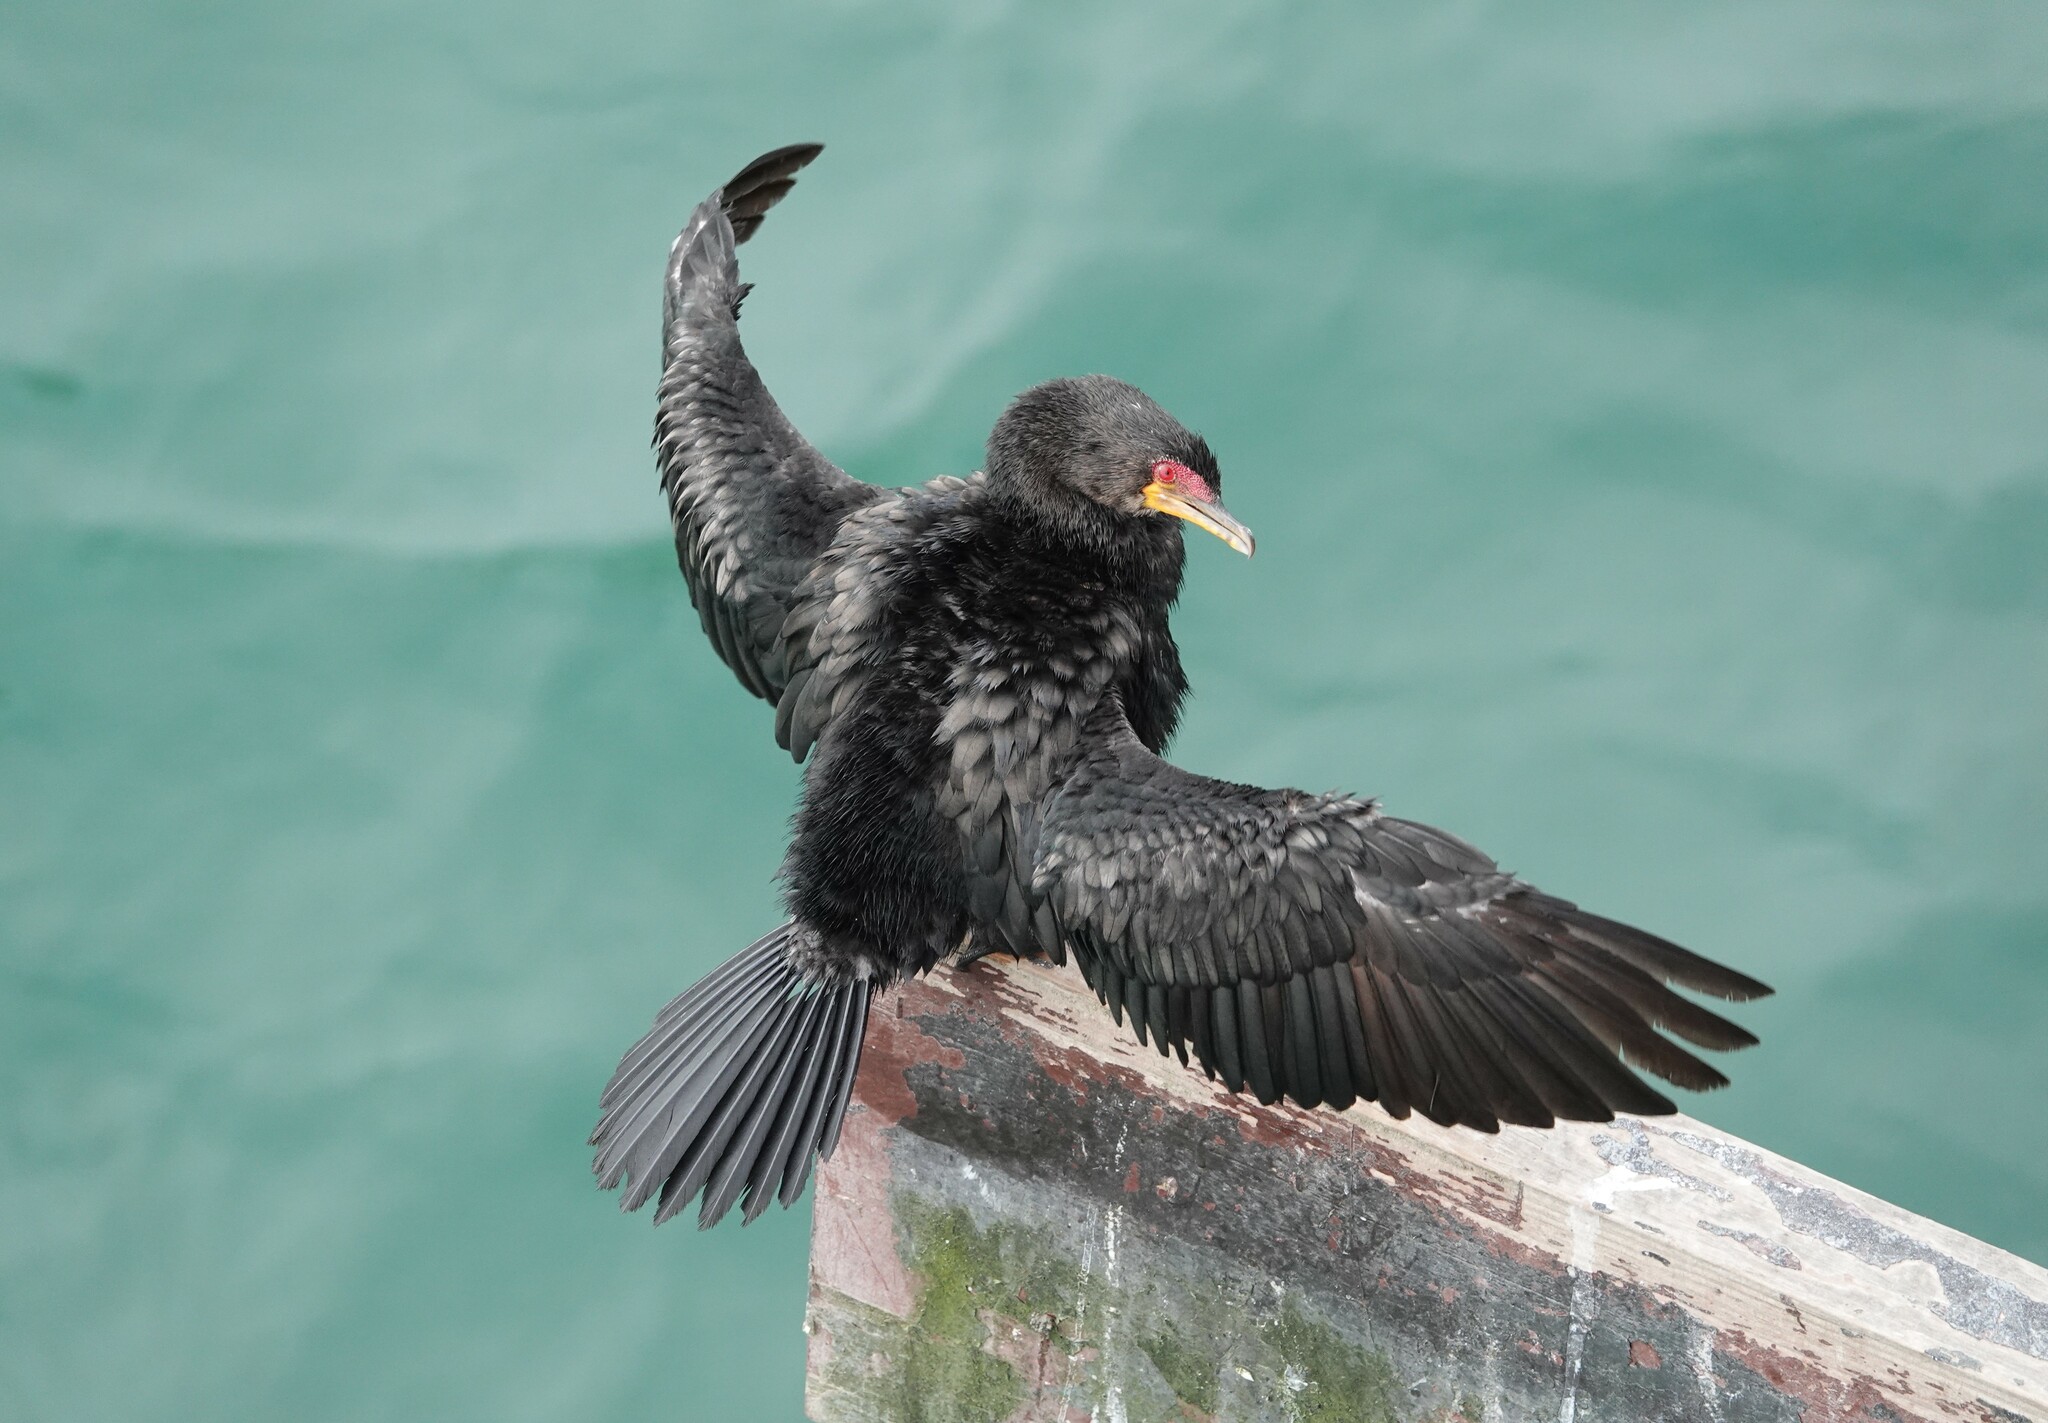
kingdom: Animalia
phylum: Chordata
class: Aves
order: Suliformes
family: Phalacrocoracidae
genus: Microcarbo
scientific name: Microcarbo coronatus
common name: Crowned cormorant
